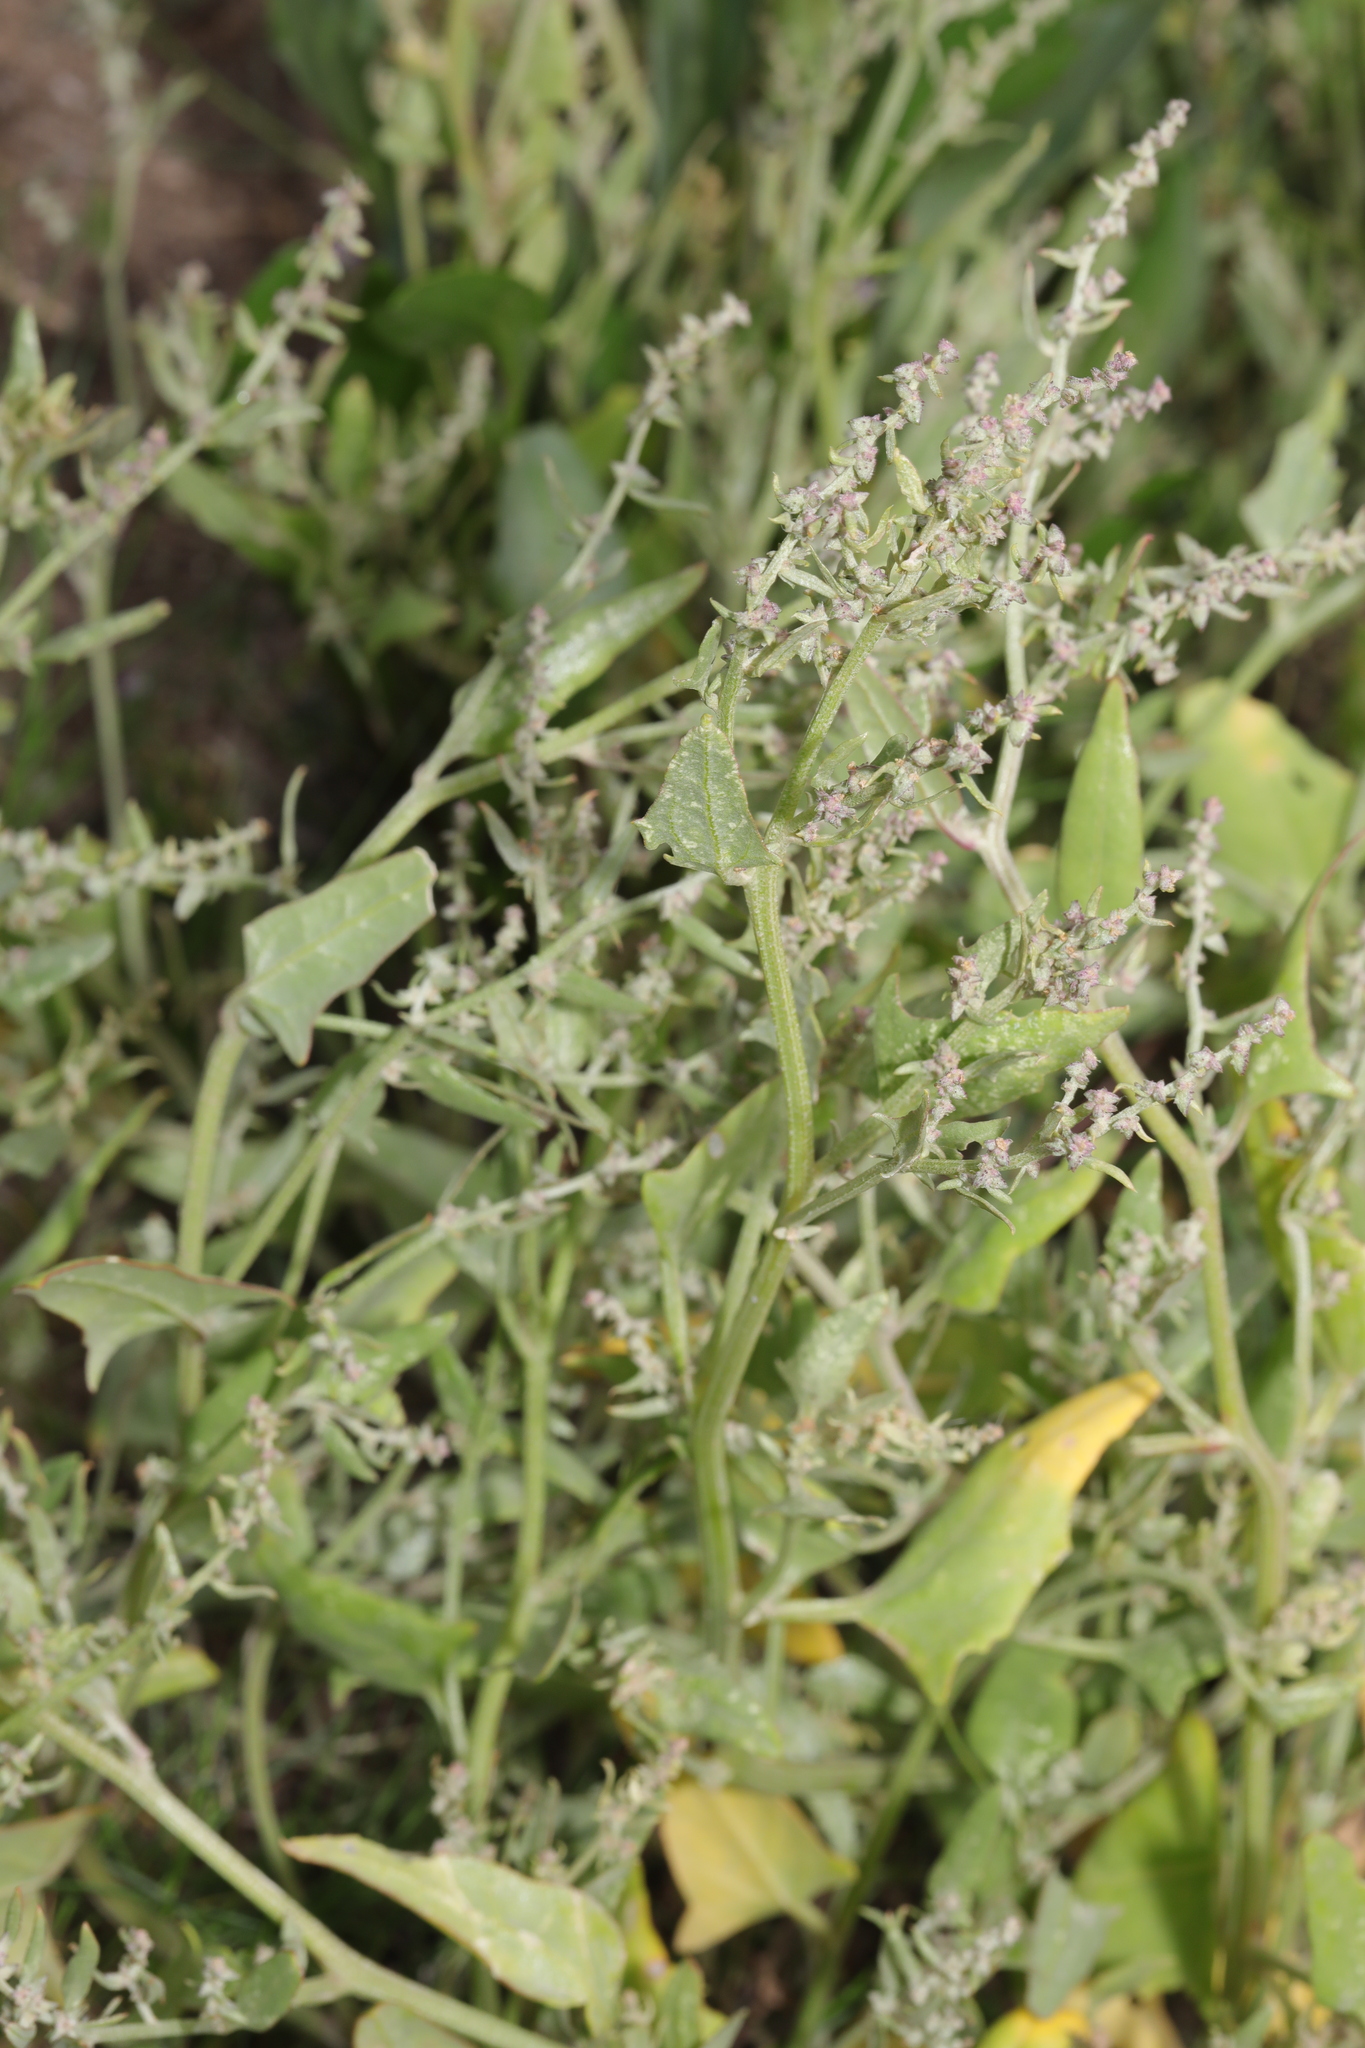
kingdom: Plantae
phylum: Tracheophyta
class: Magnoliopsida
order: Caryophyllales
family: Amaranthaceae
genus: Atriplex
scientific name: Atriplex prostrata
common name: Spear-leaved orache
